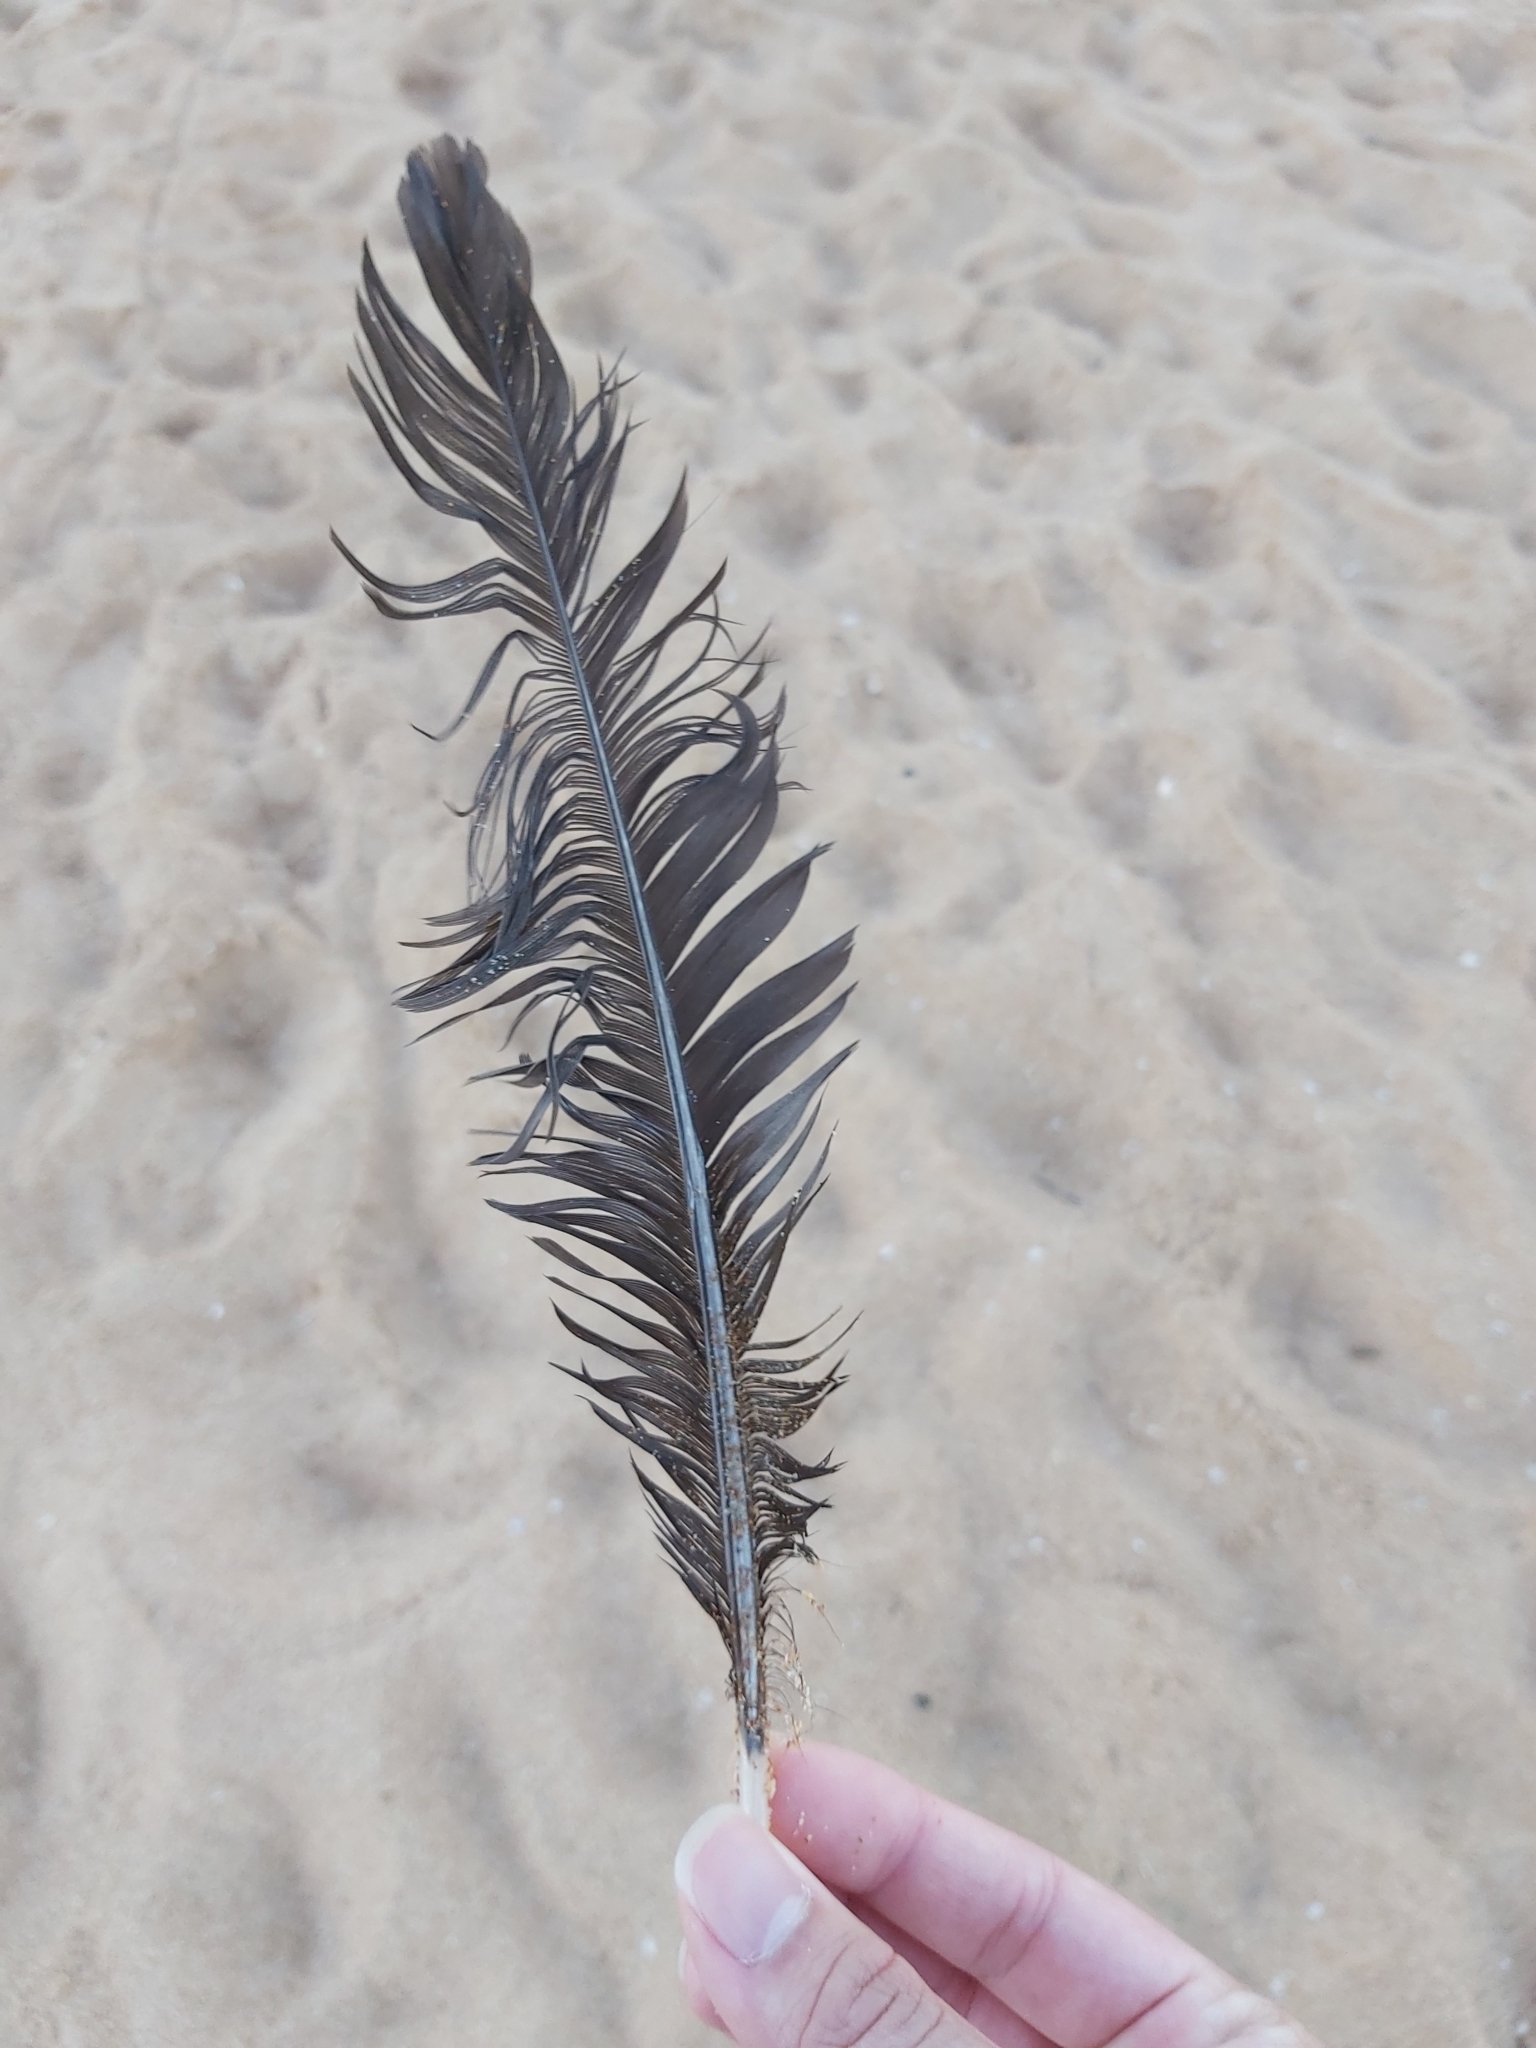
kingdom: Animalia
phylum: Chordata
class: Aves
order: Galliformes
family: Megapodiidae
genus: Alectura
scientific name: Alectura lathami
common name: Australian brushturkey
